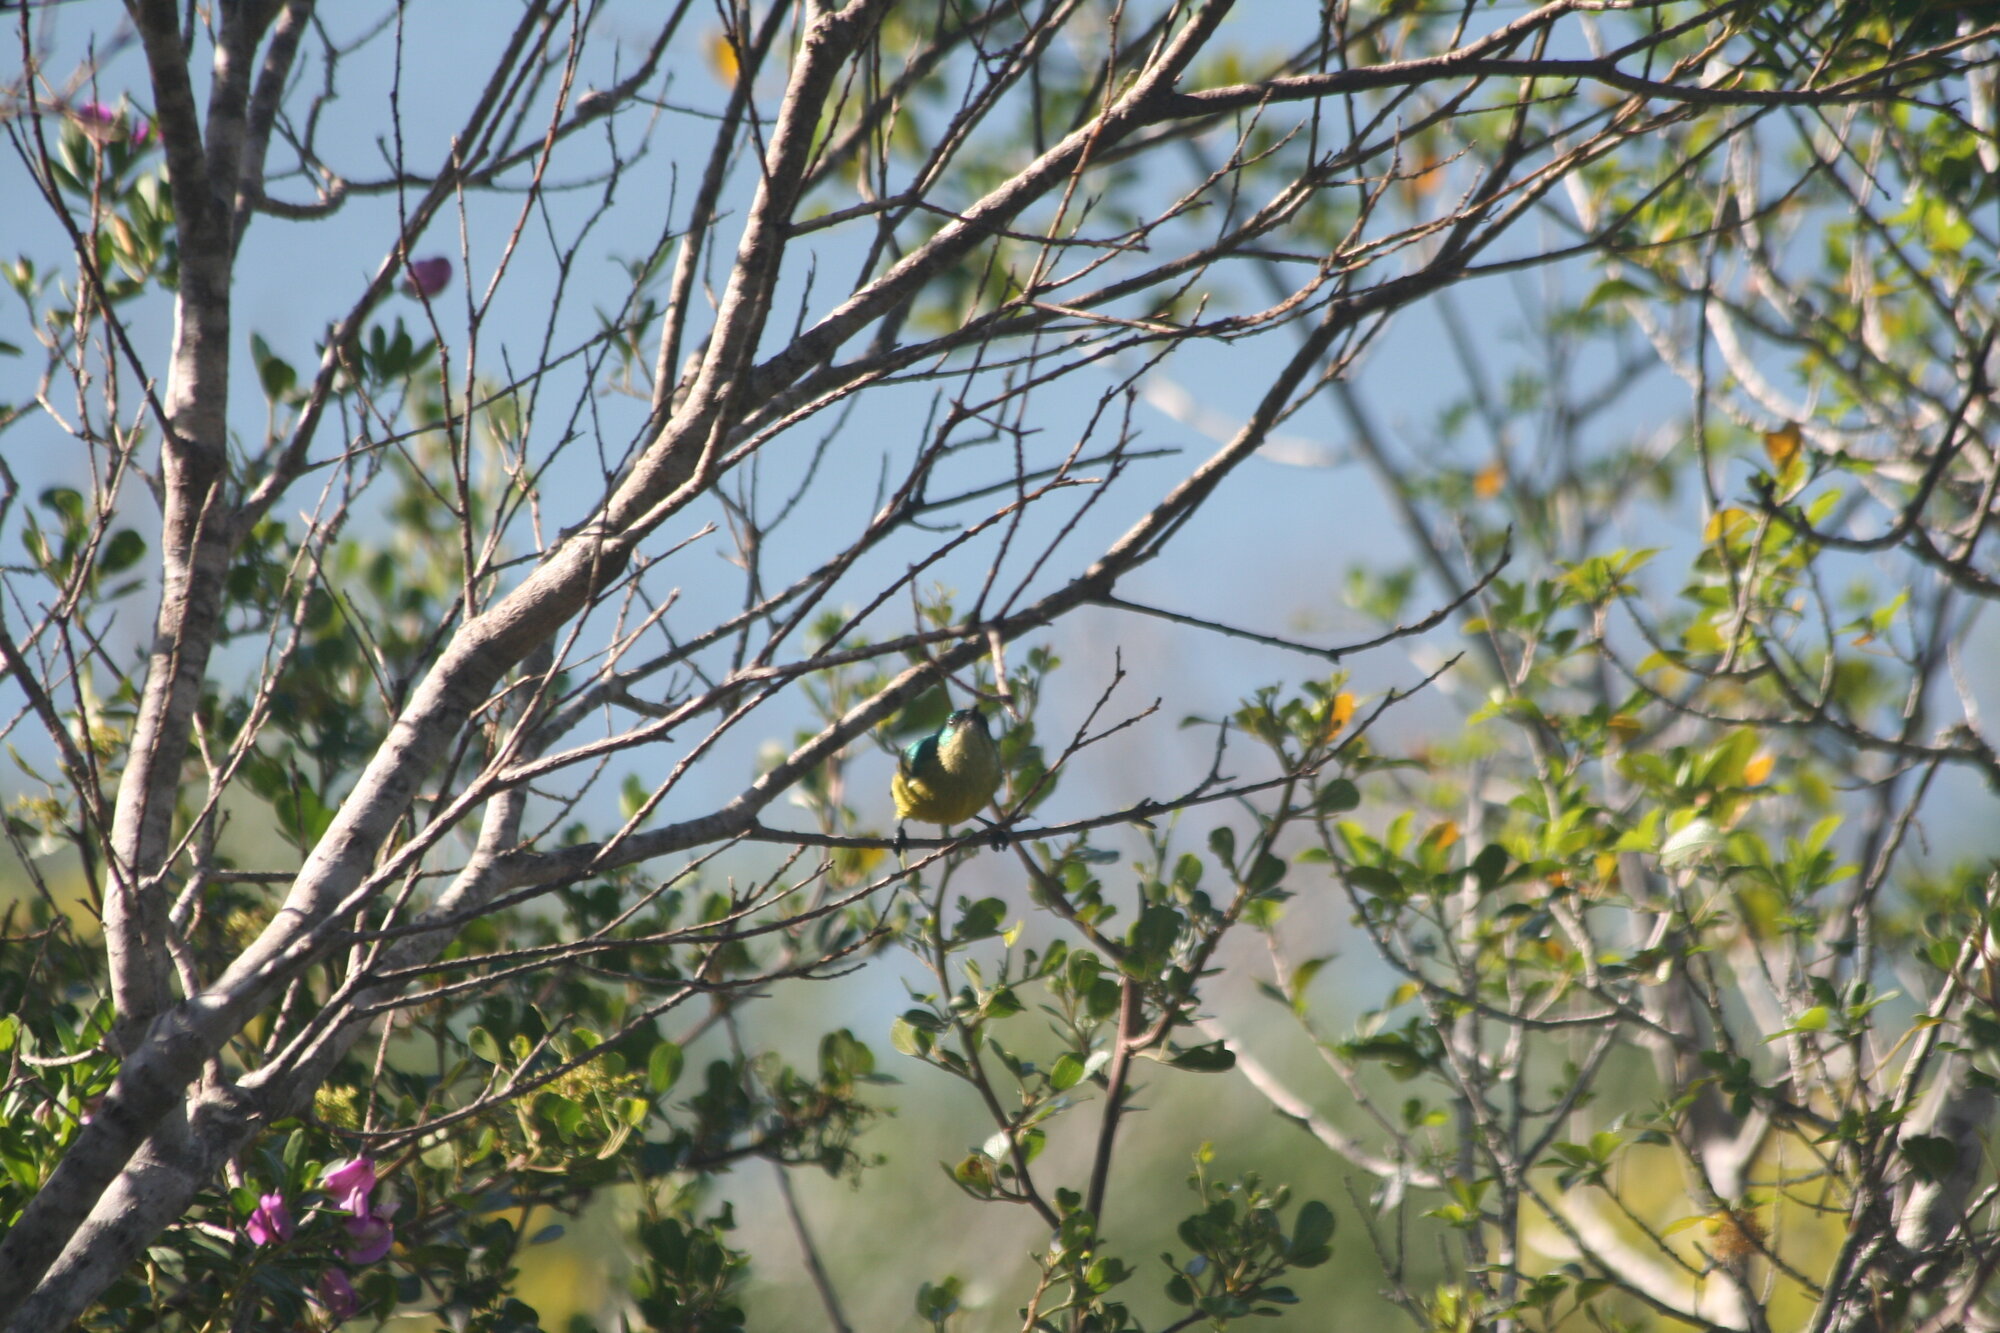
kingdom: Animalia
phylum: Chordata
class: Aves
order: Passeriformes
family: Nectariniidae
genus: Hedydipna
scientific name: Hedydipna collaris
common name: Collared sunbird
